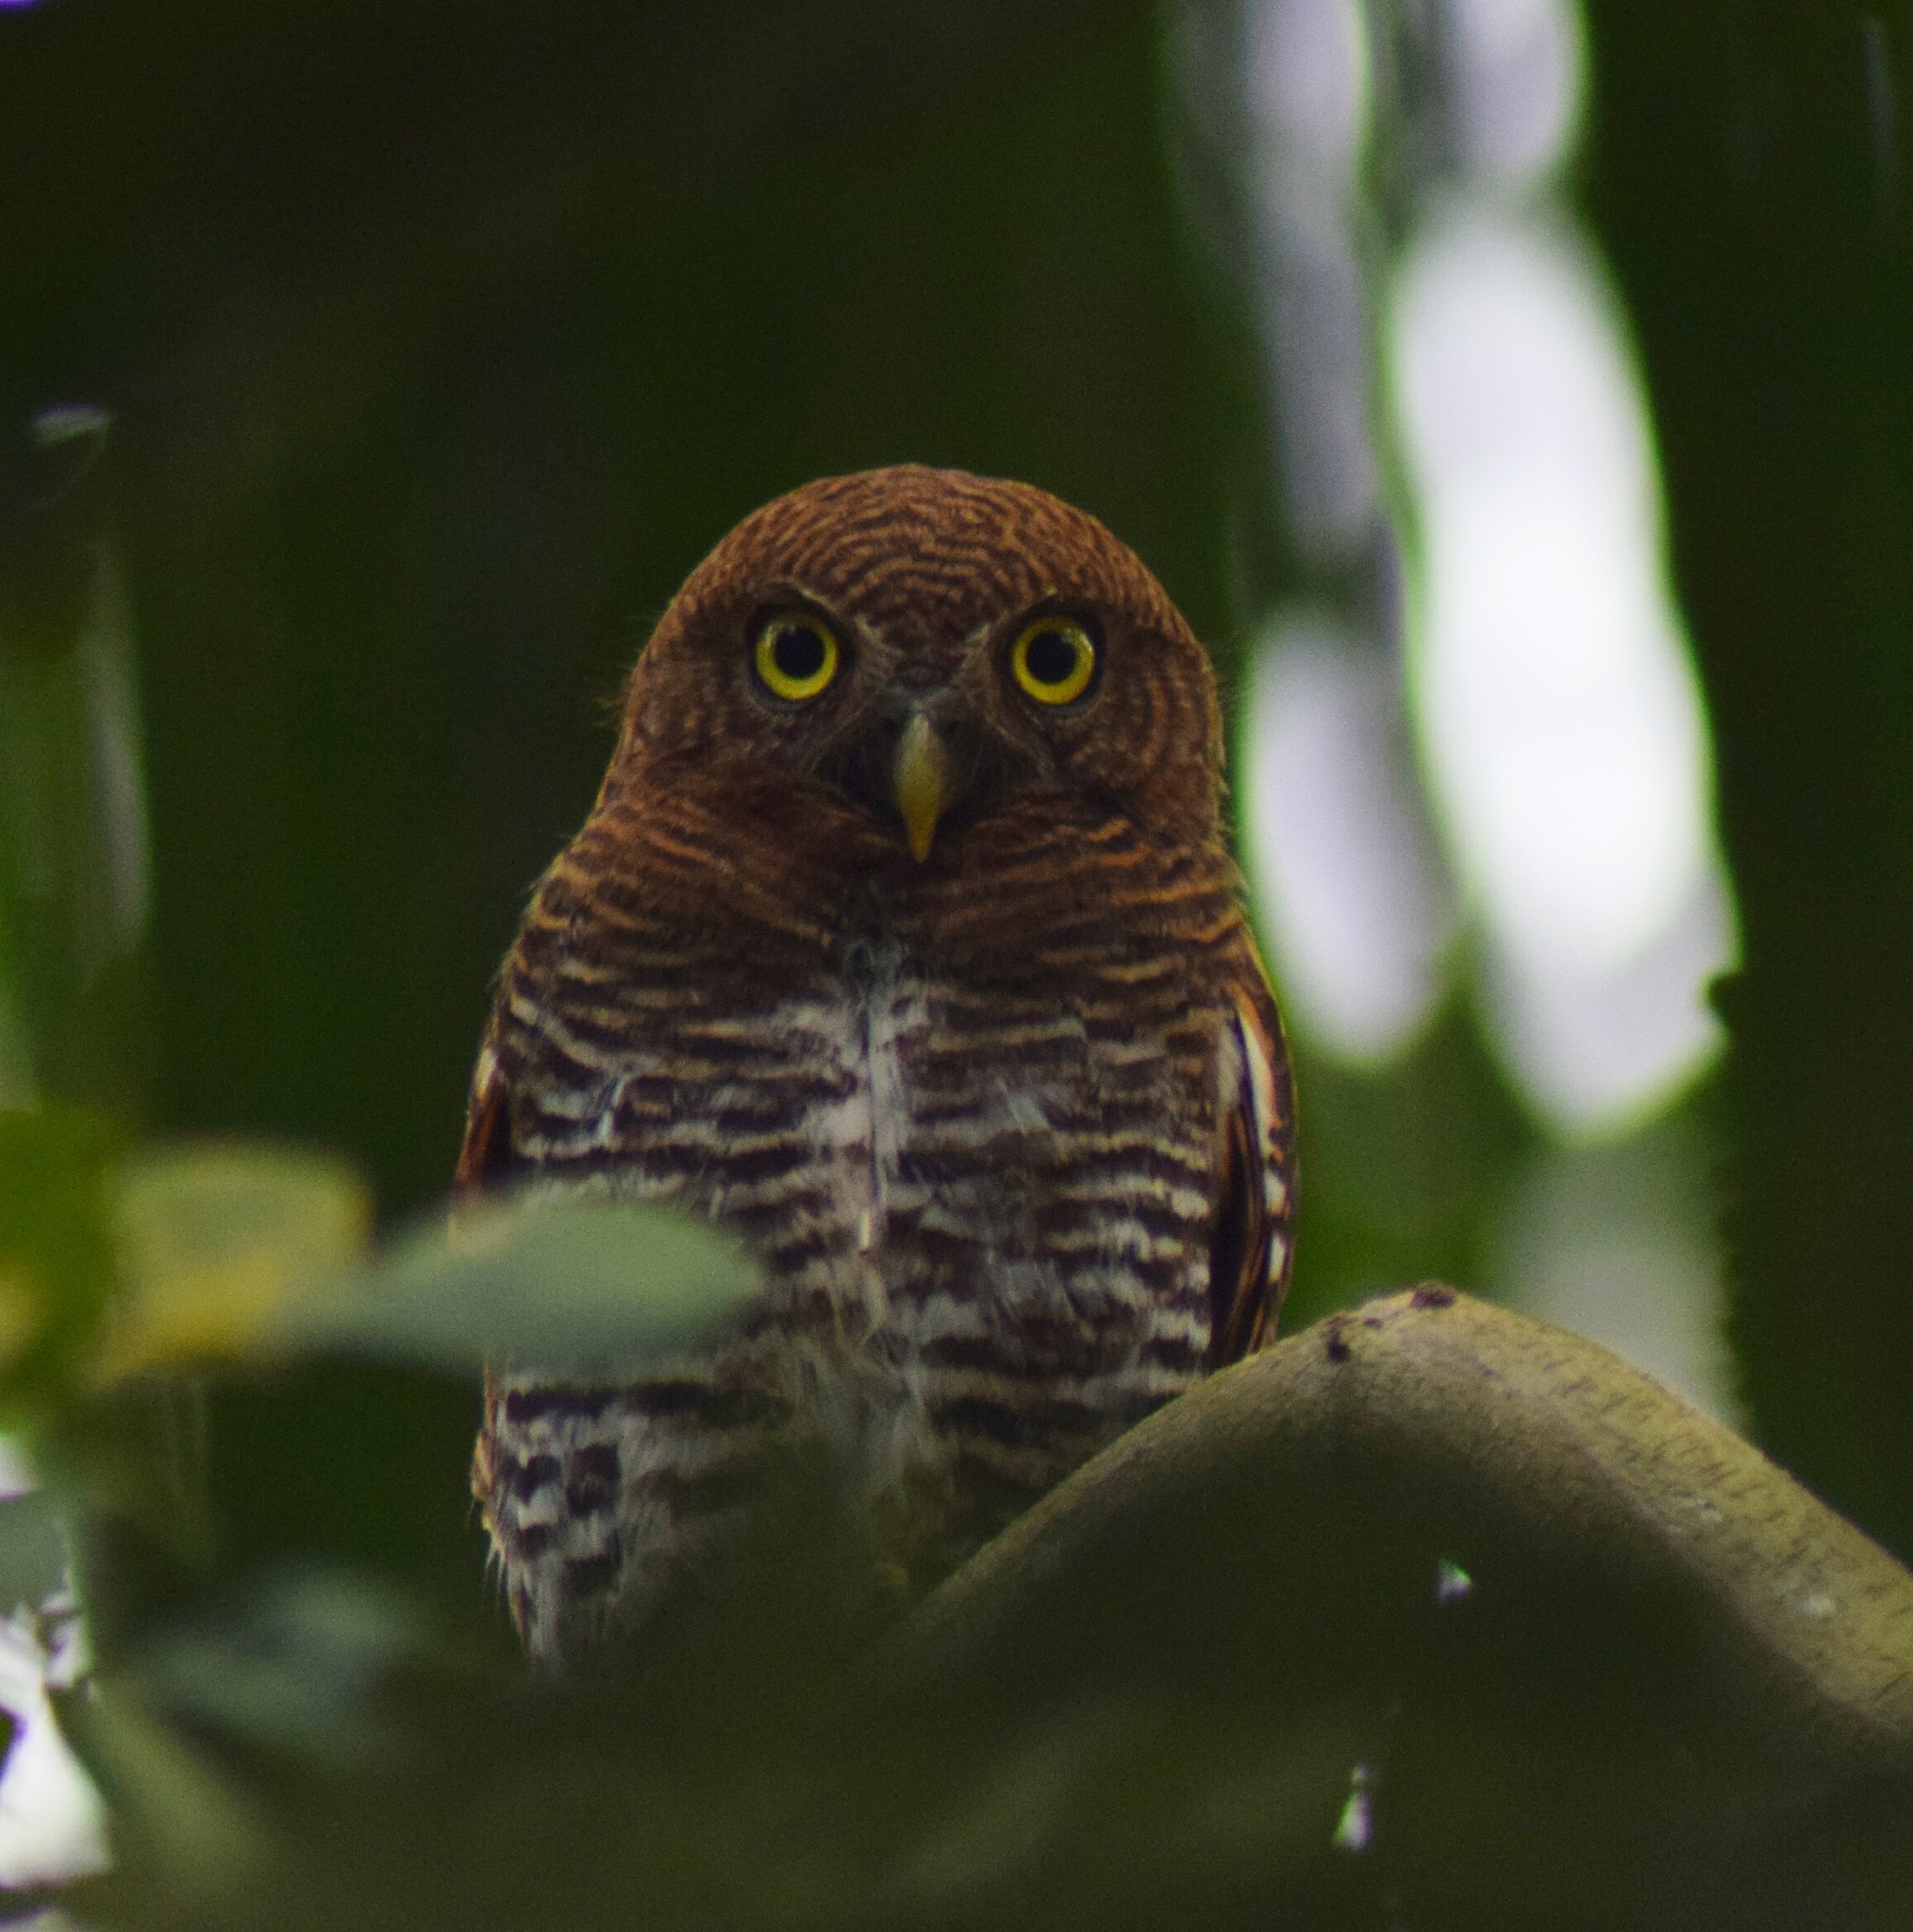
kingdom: Animalia
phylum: Chordata
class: Aves
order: Strigiformes
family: Strigidae
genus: Glaucidium
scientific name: Glaucidium radiatum
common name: Jungle owlet
